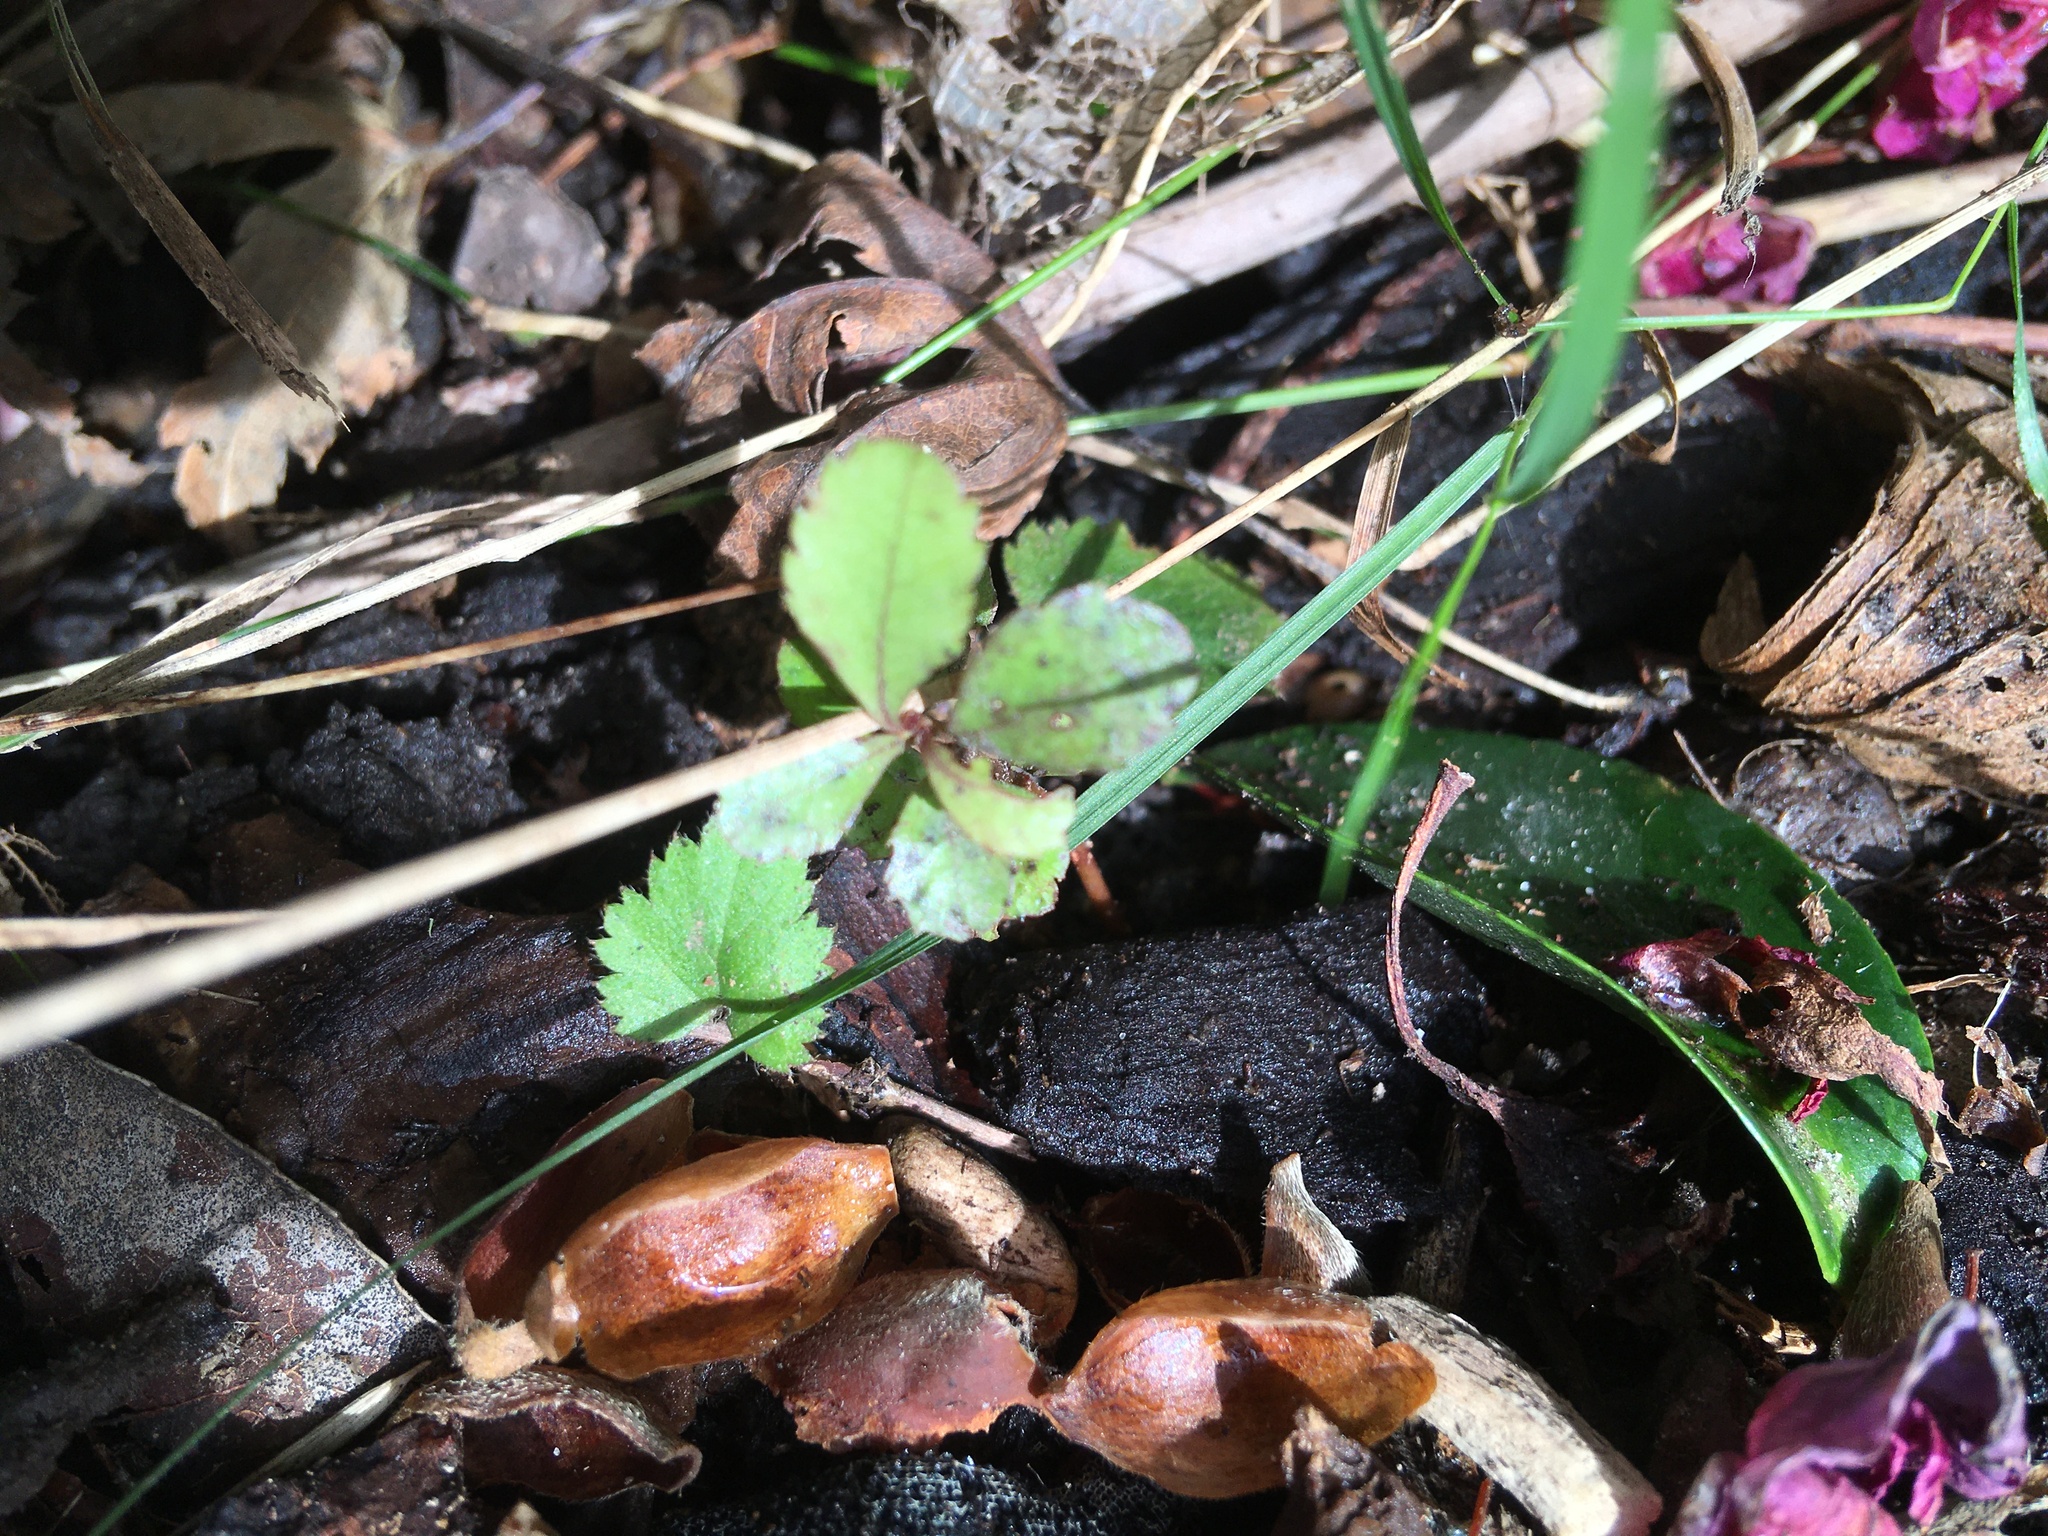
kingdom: Plantae
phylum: Tracheophyta
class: Magnoliopsida
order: Ericales
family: Primulaceae
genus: Myrsine
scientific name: Myrsine australis
